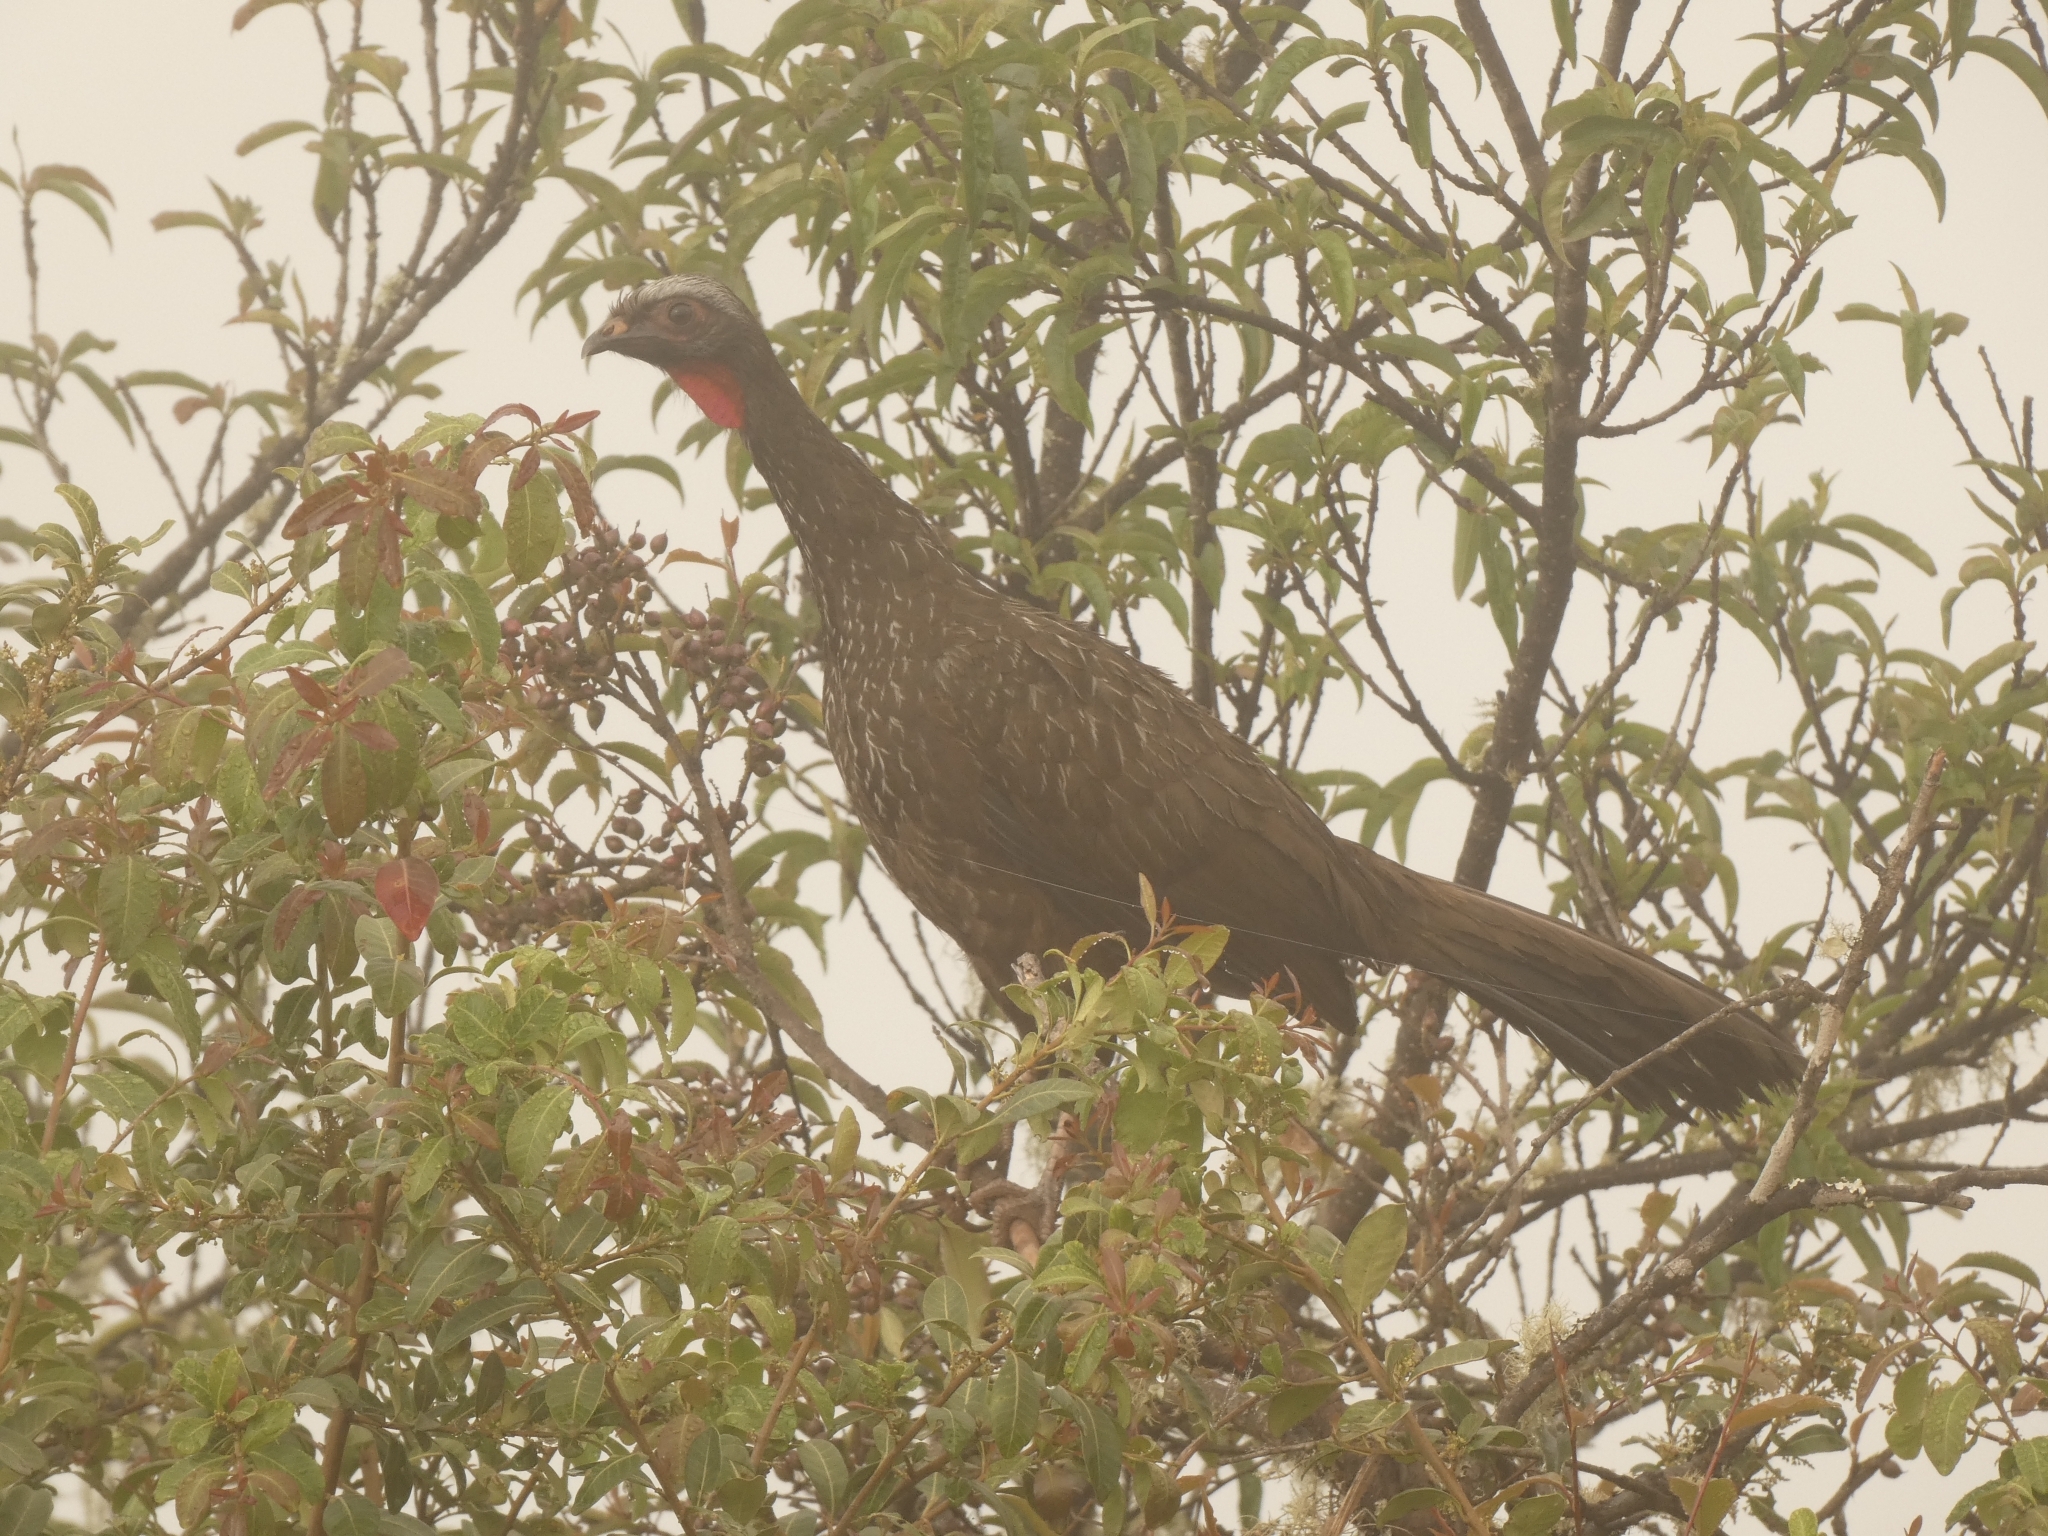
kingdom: Animalia
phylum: Chordata
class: Aves
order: Galliformes
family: Cracidae
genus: Penelope
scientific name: Penelope dabbenei
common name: Red-faced guan
